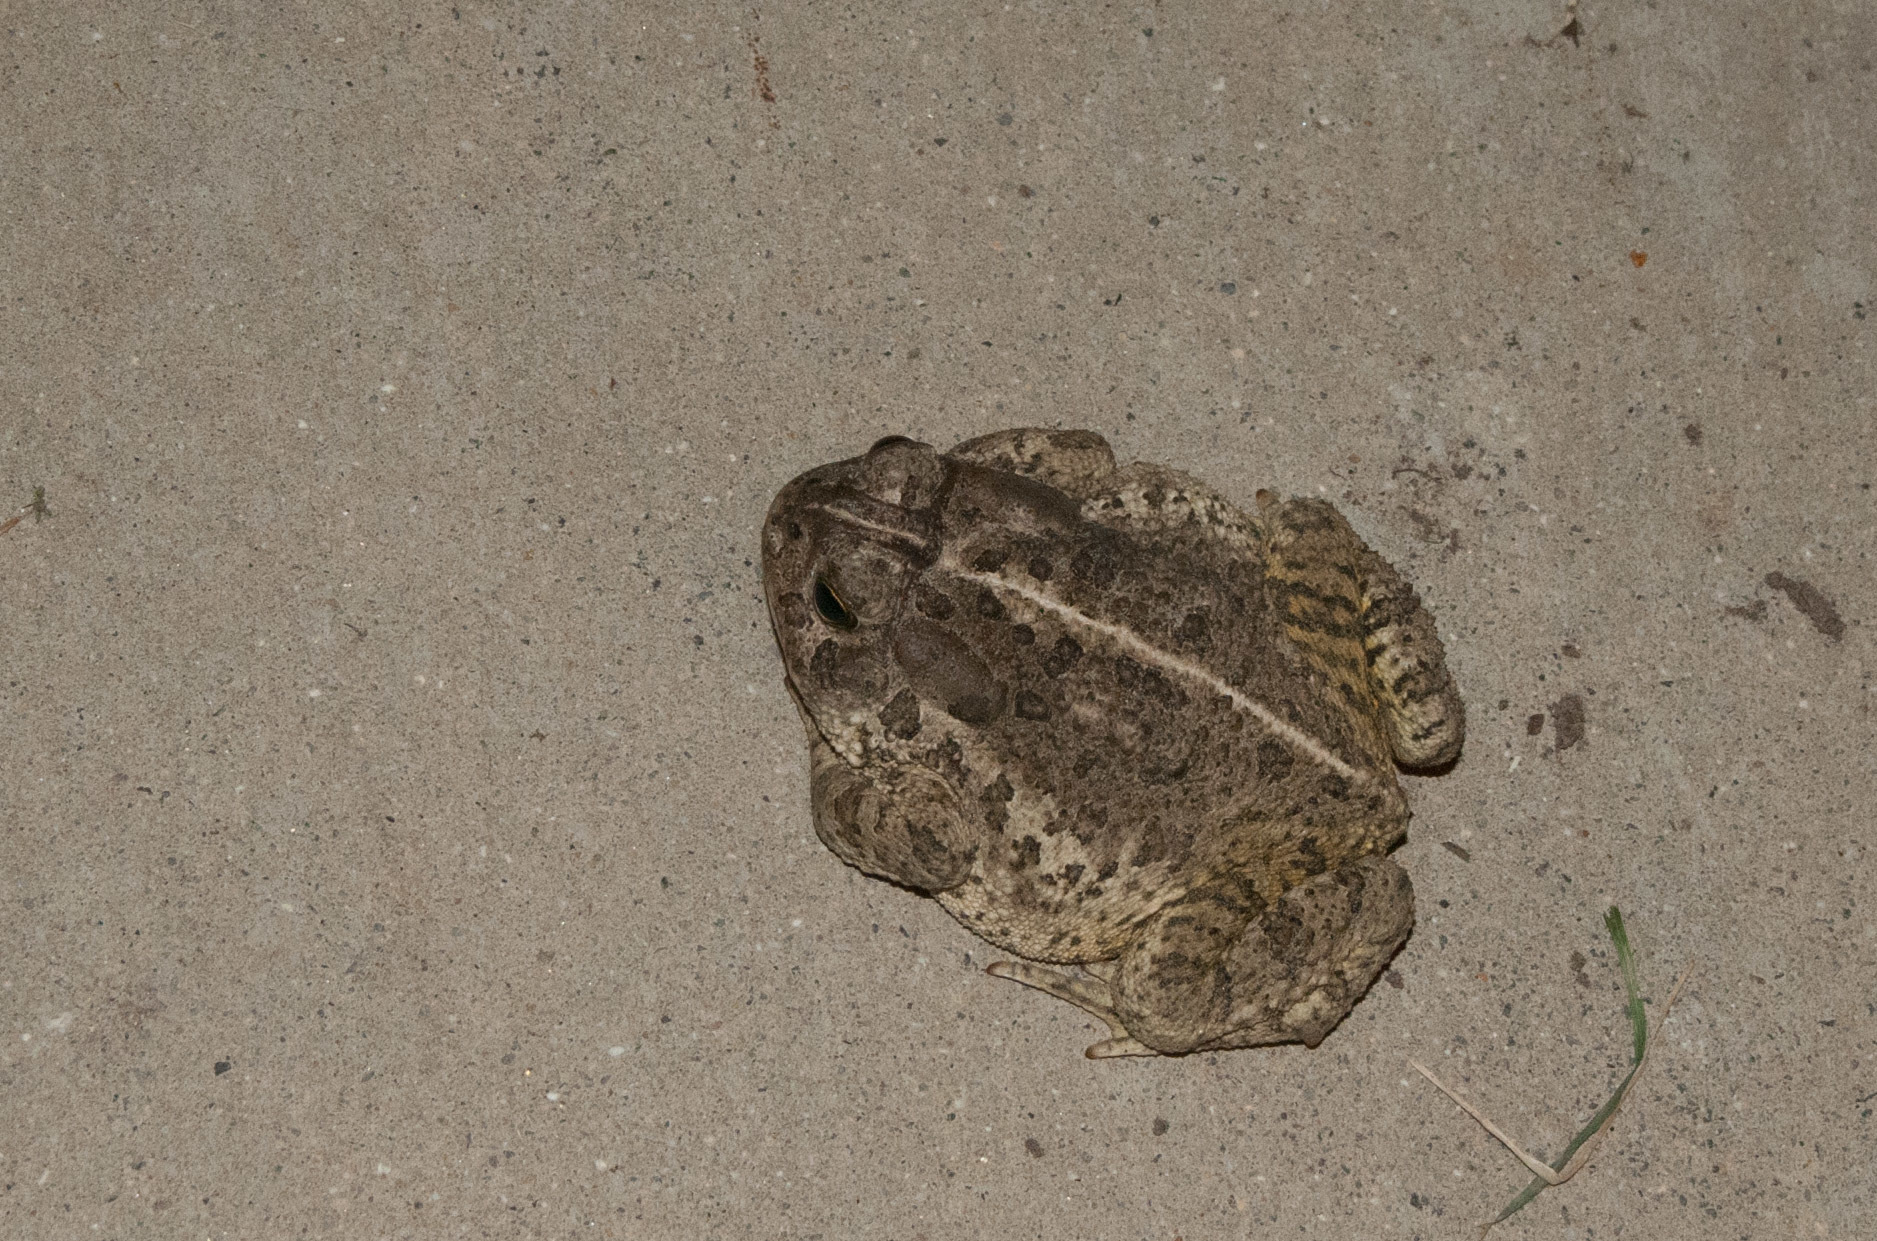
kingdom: Animalia
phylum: Chordata
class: Amphibia
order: Anura
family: Bufonidae
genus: Anaxyrus
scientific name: Anaxyrus woodhousii
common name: Woodhouse's toad
